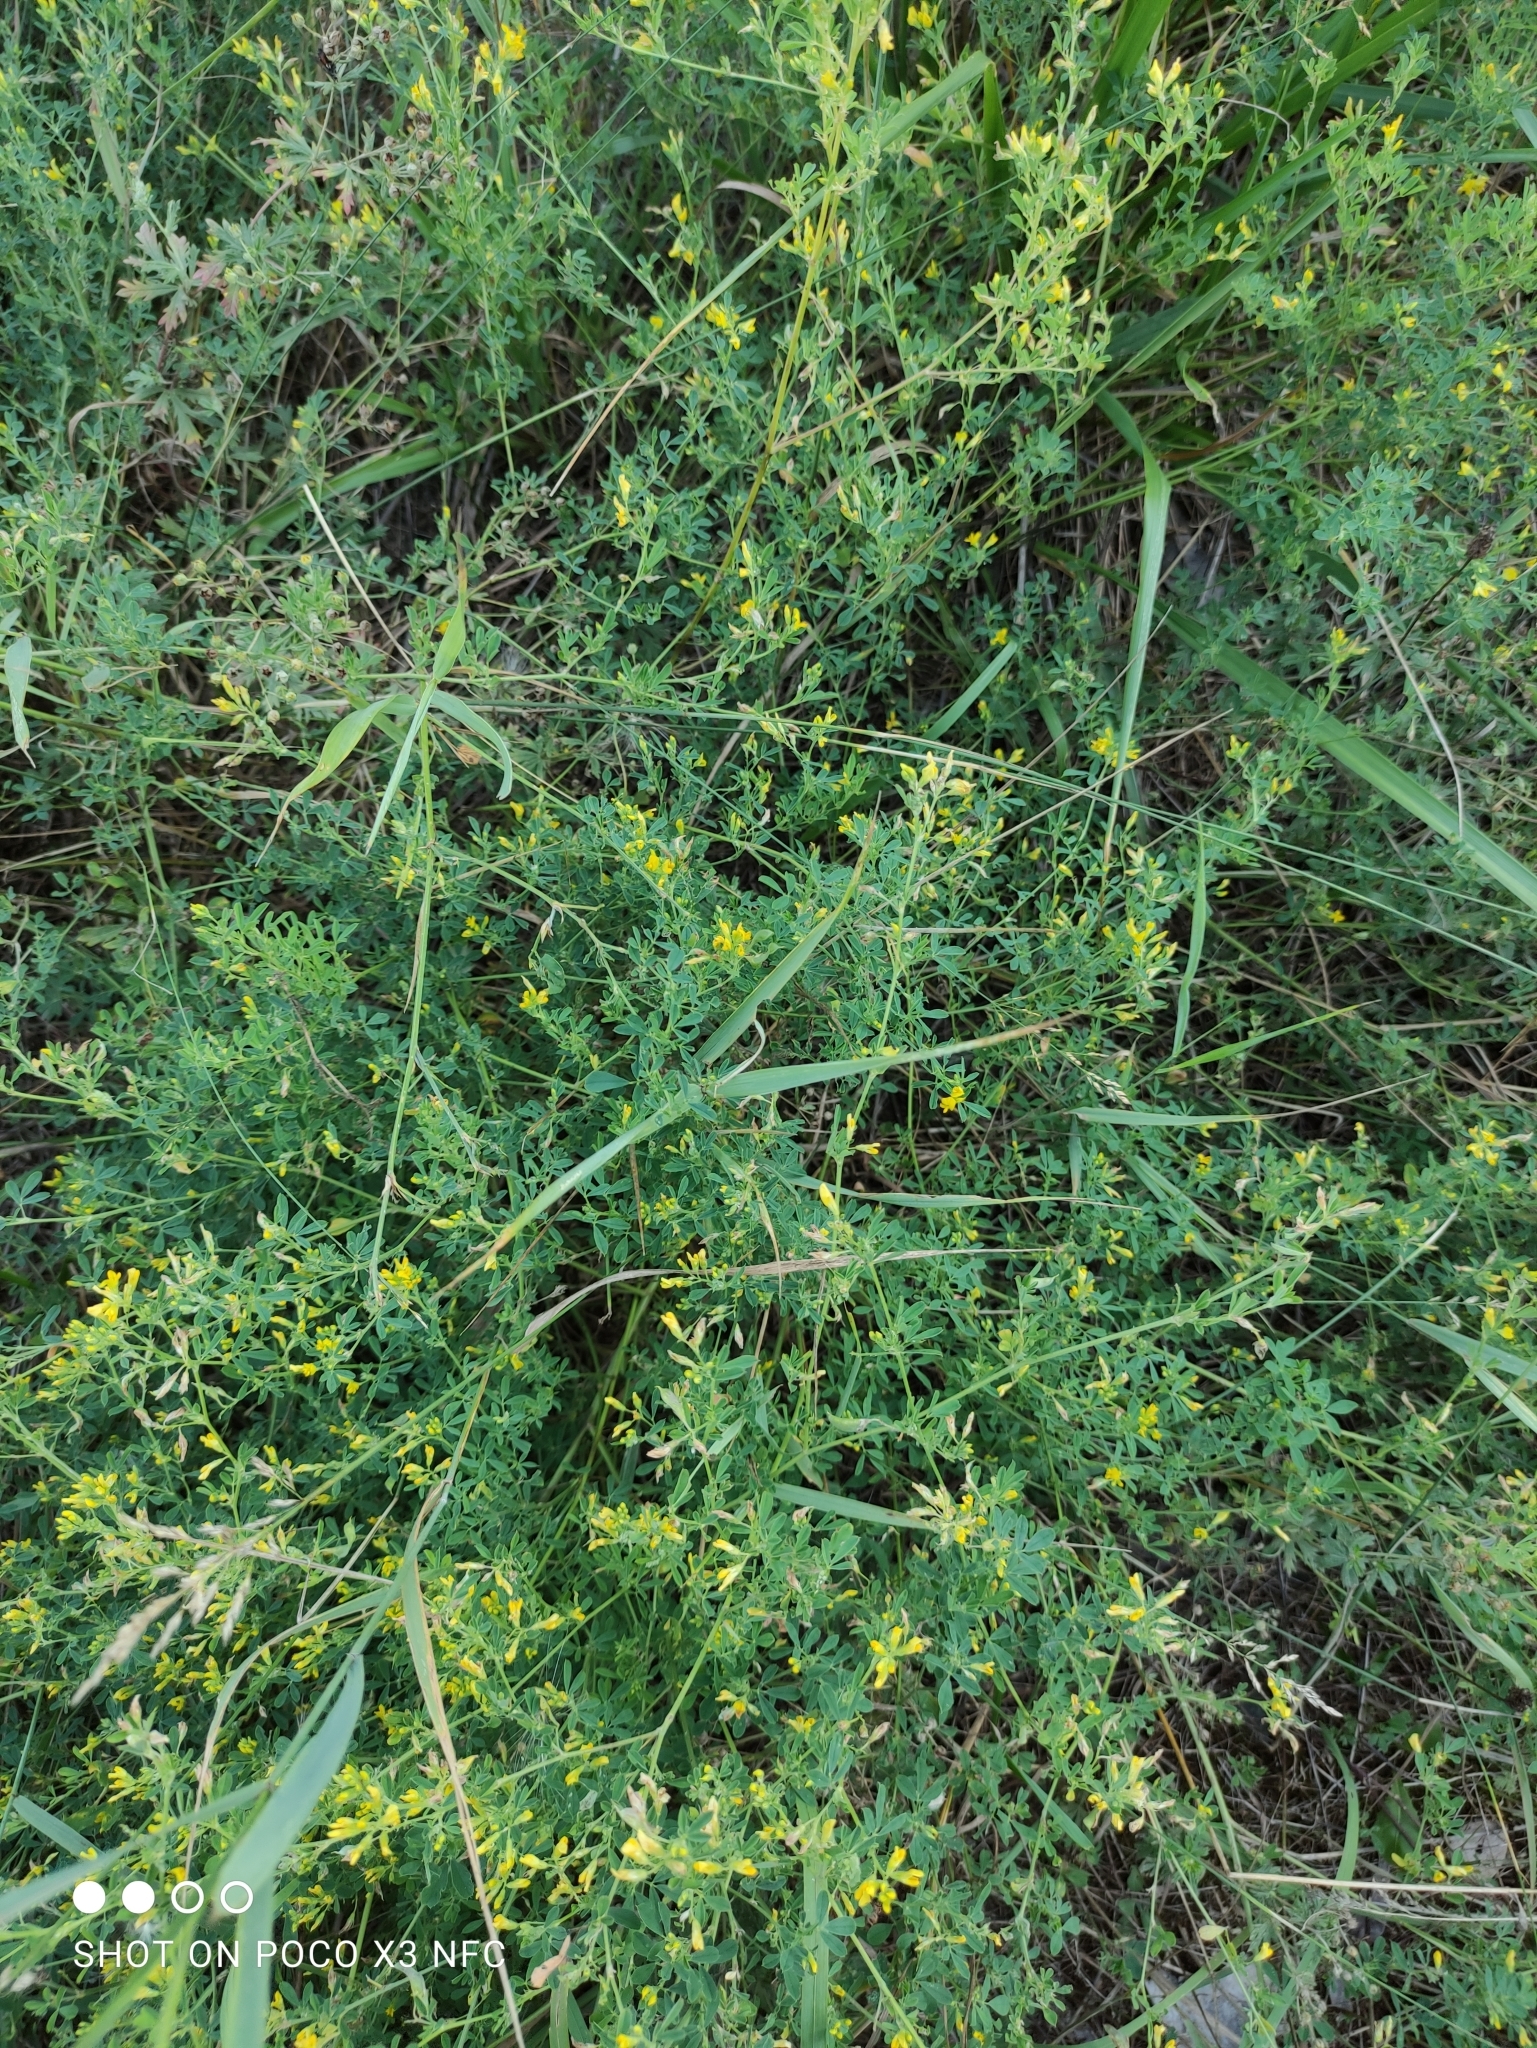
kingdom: Plantae
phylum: Tracheophyta
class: Magnoliopsida
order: Fabales
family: Fabaceae
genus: Medicago
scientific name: Medicago falcata
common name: Sickle medick
